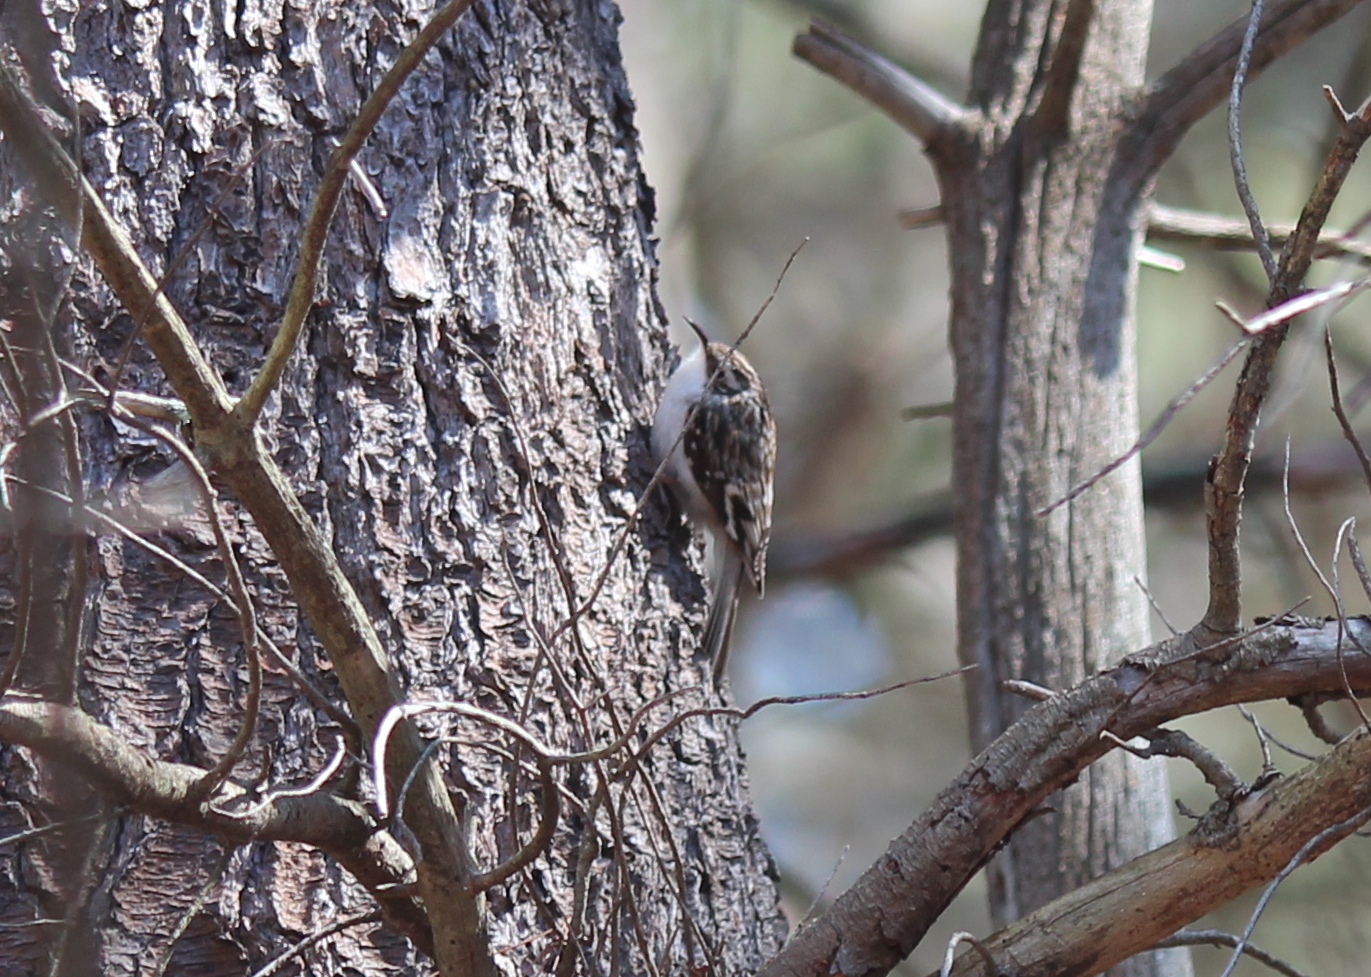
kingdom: Animalia
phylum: Chordata
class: Aves
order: Passeriformes
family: Certhiidae
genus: Certhia
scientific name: Certhia americana
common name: Brown creeper
